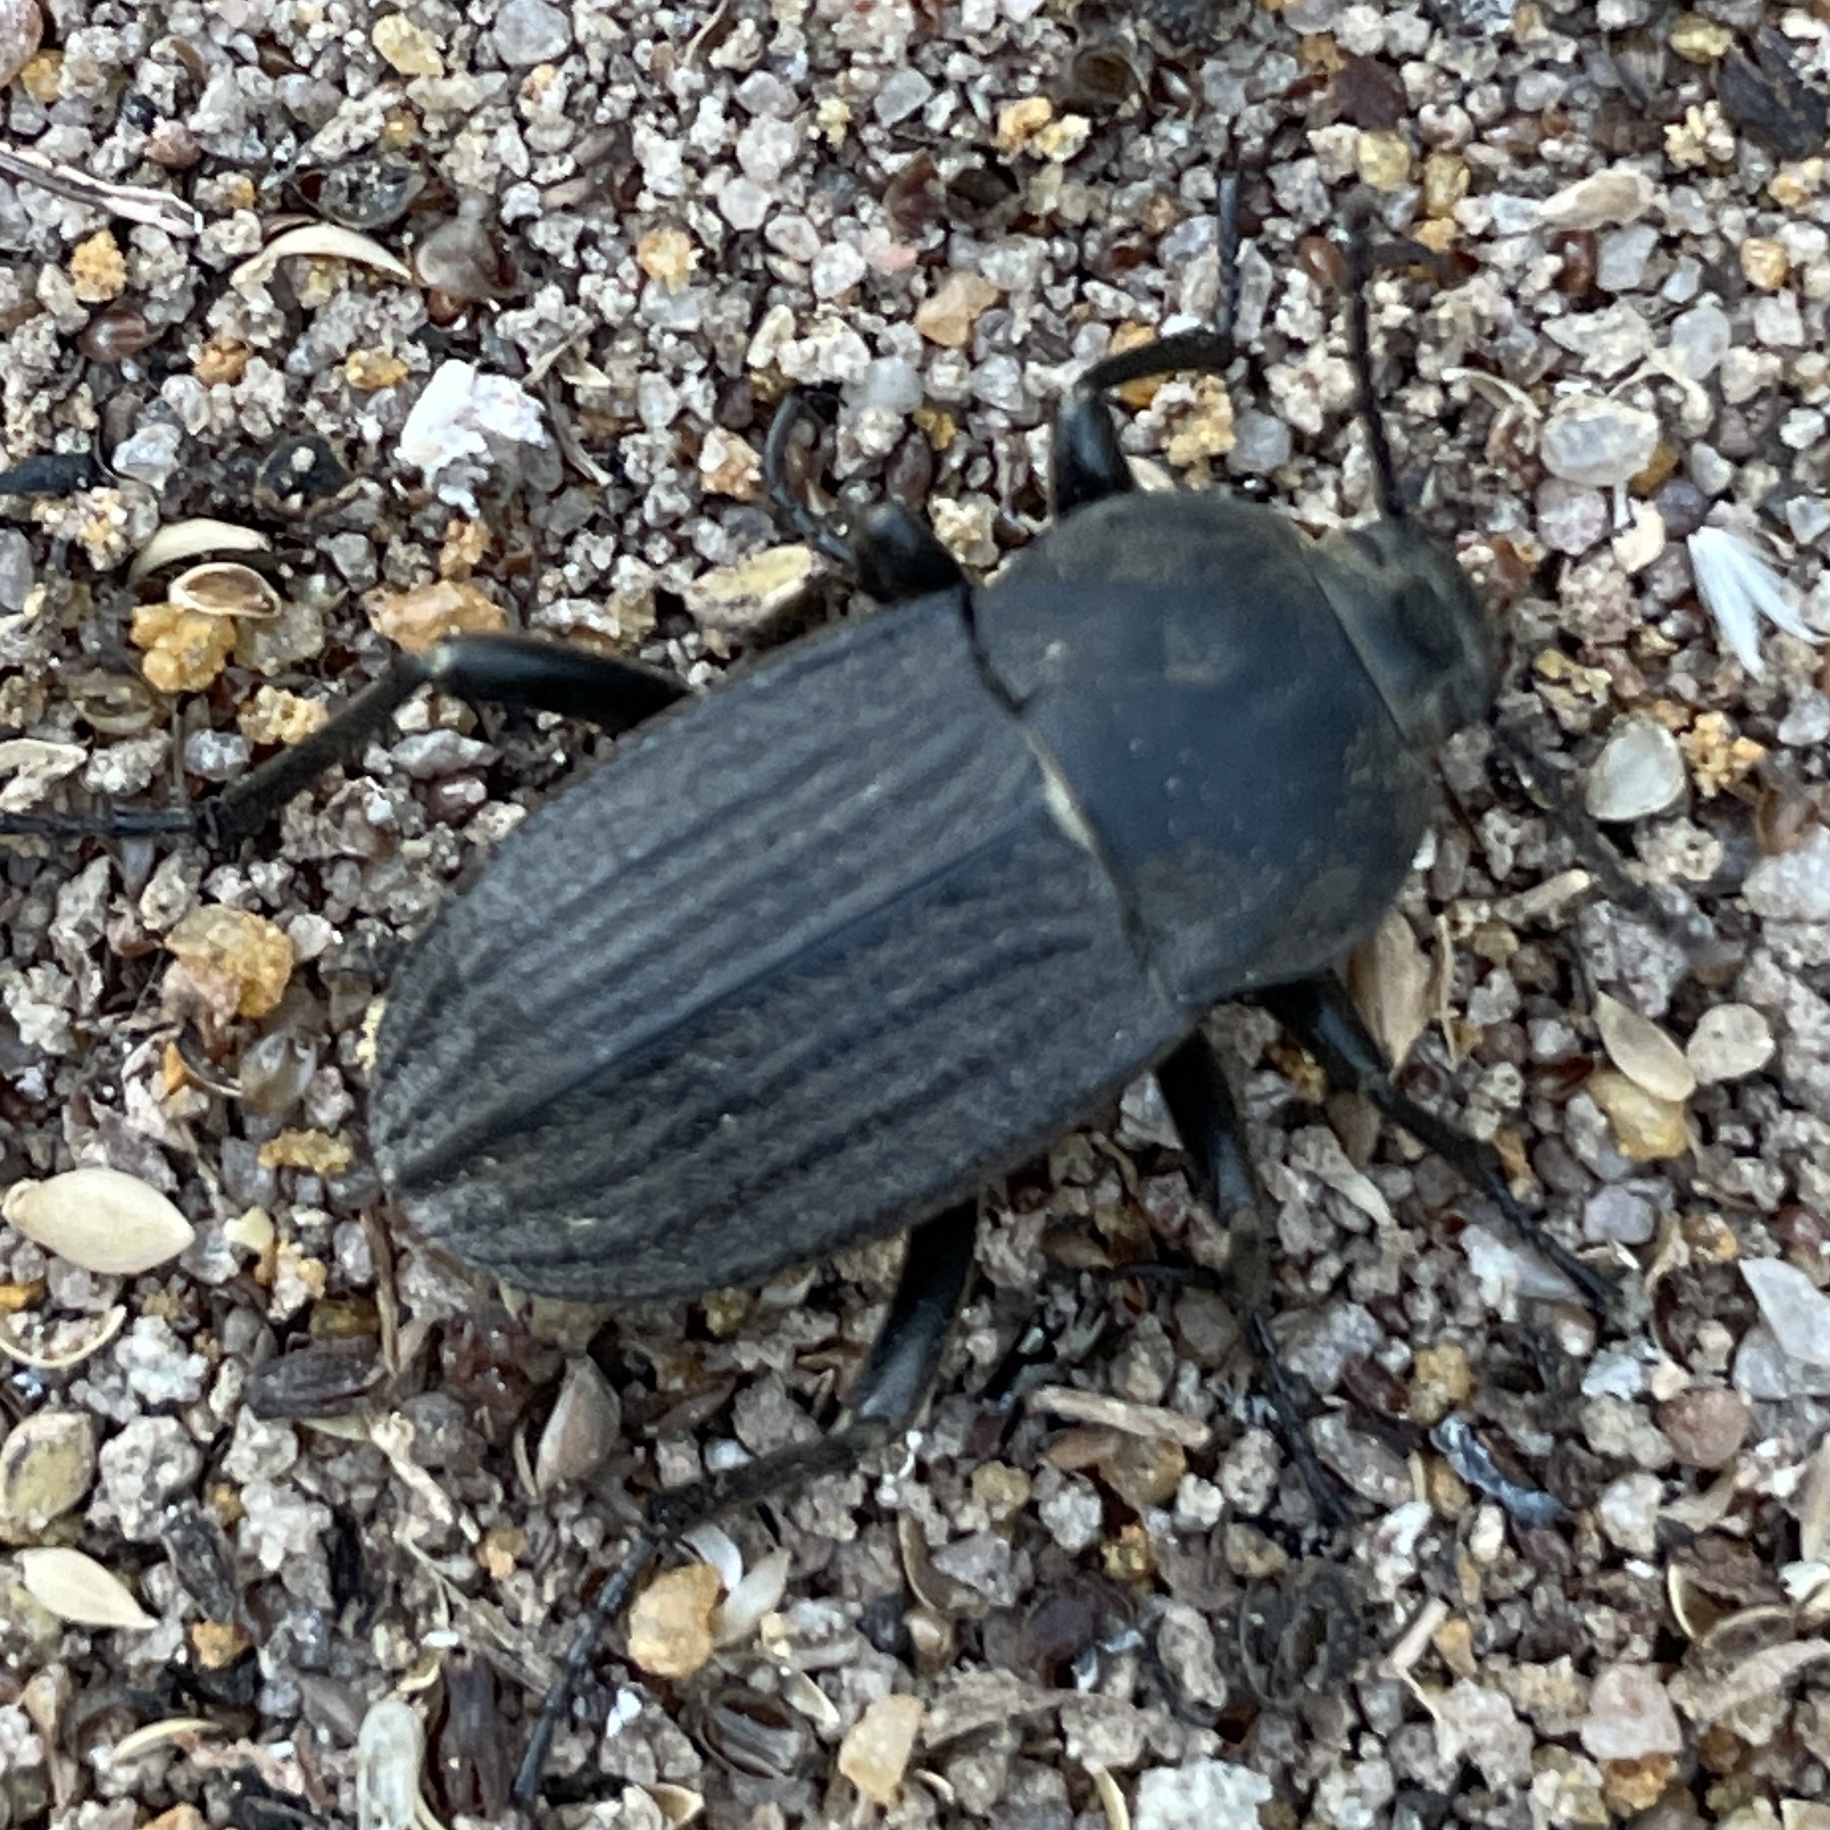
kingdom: Animalia
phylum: Arthropoda
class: Insecta
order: Coleoptera
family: Tenebrionidae
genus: Eleodes
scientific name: Eleodes tricostata
